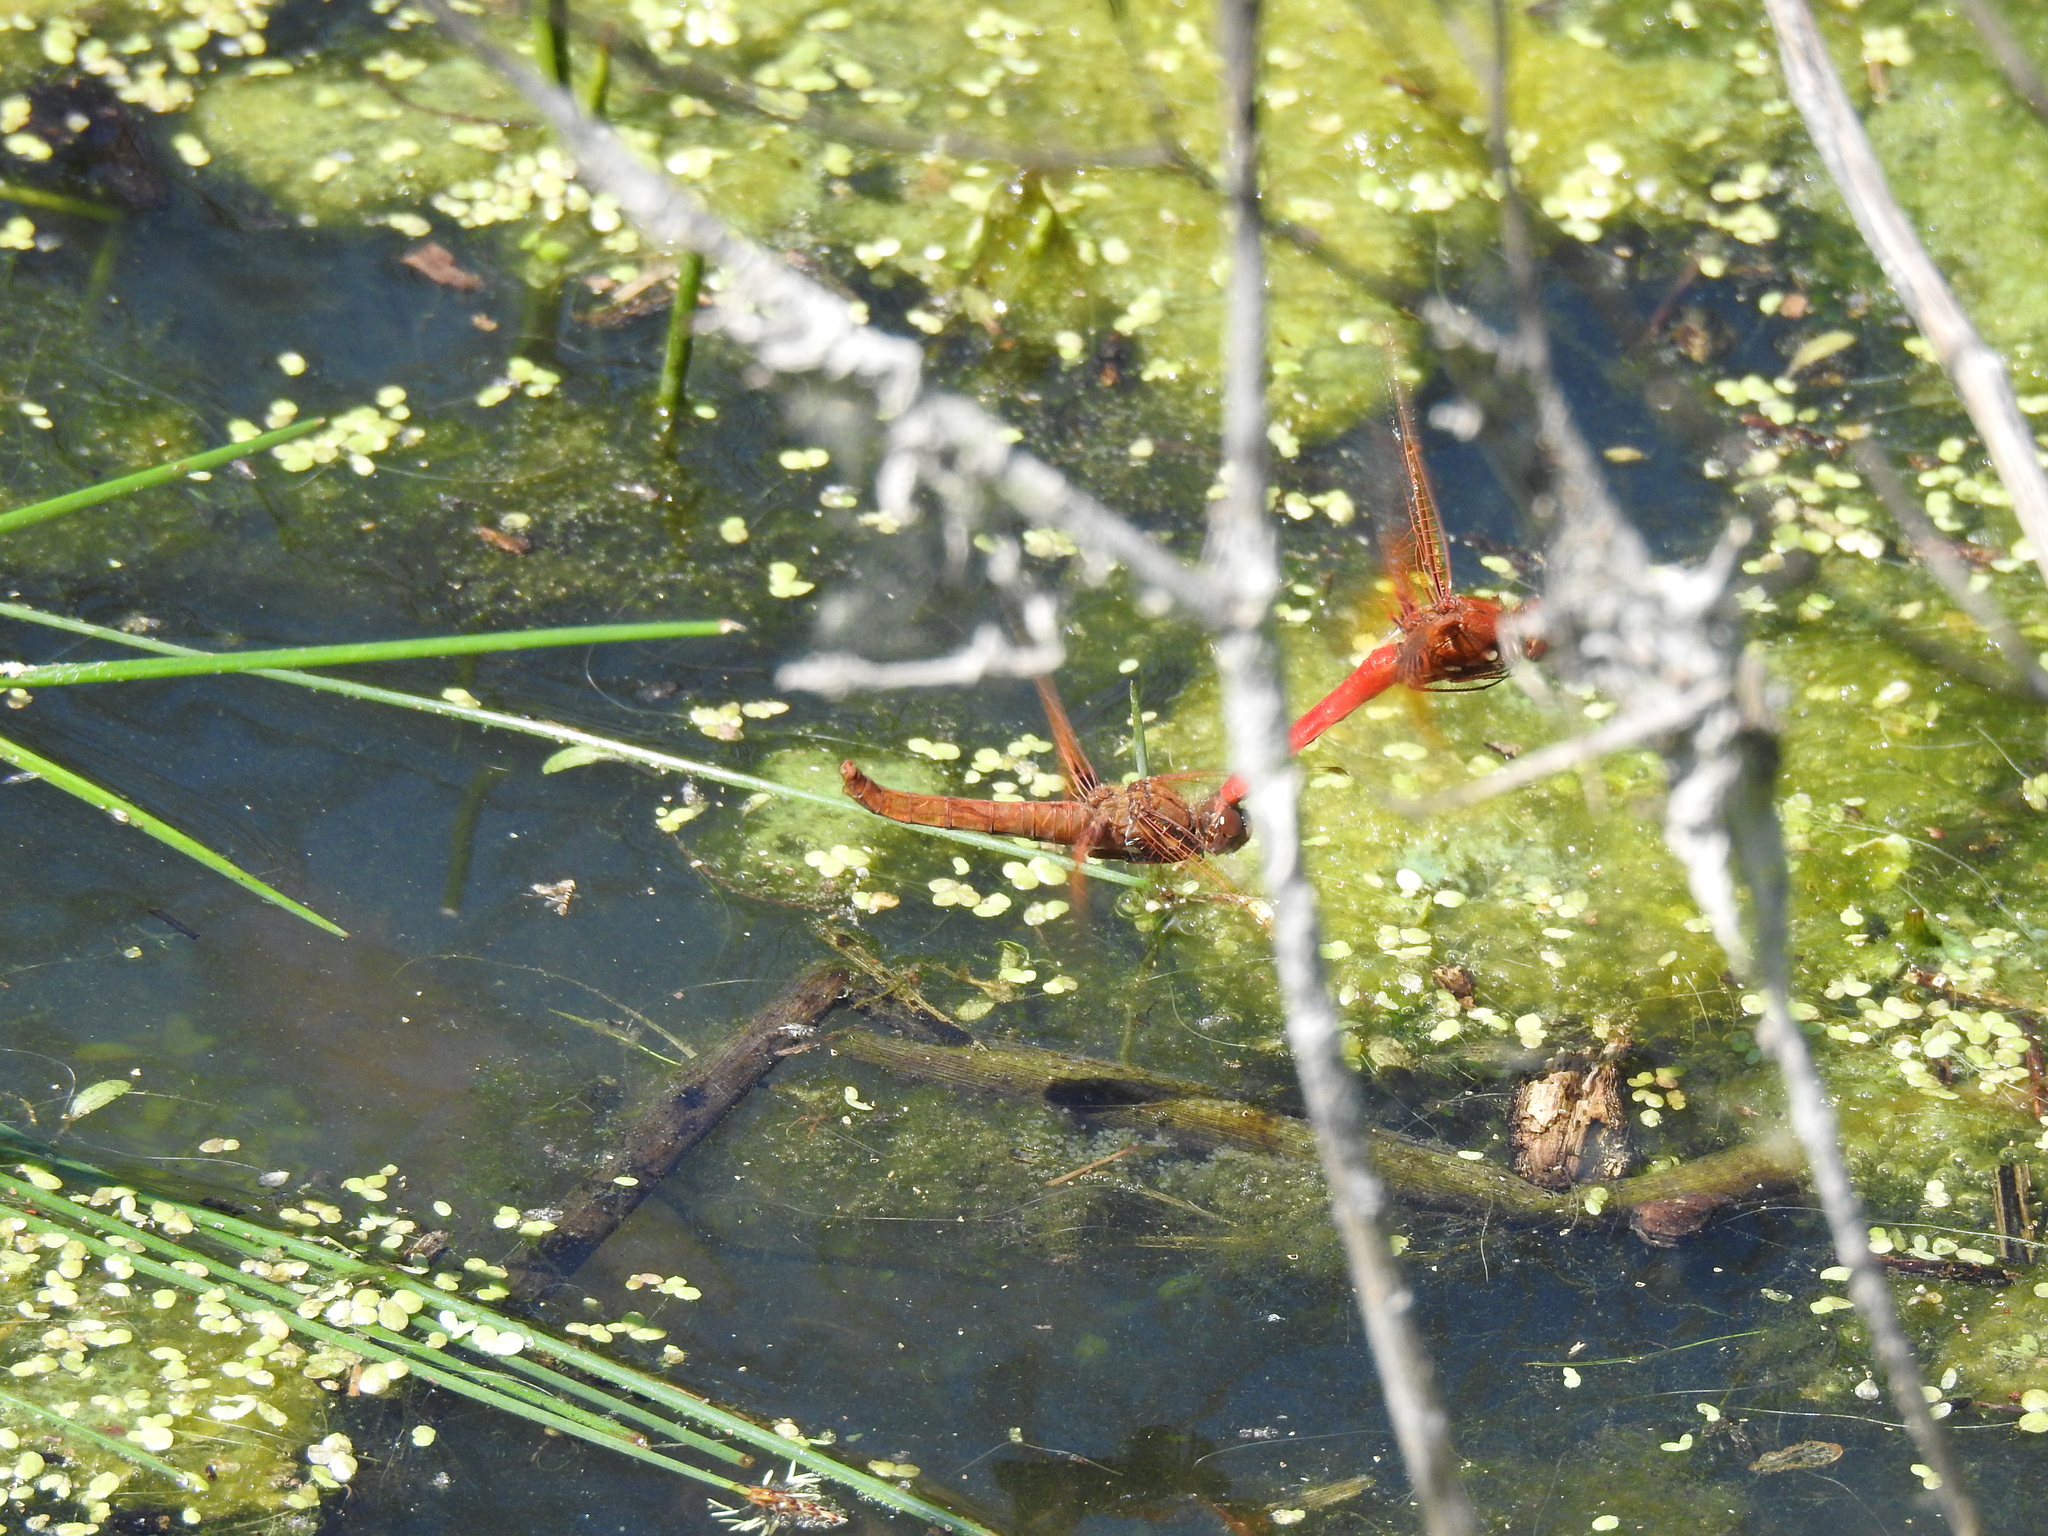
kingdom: Animalia
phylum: Arthropoda
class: Insecta
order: Odonata
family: Libellulidae
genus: Sympetrum
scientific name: Sympetrum illotum
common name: Cardinal meadowhawk
